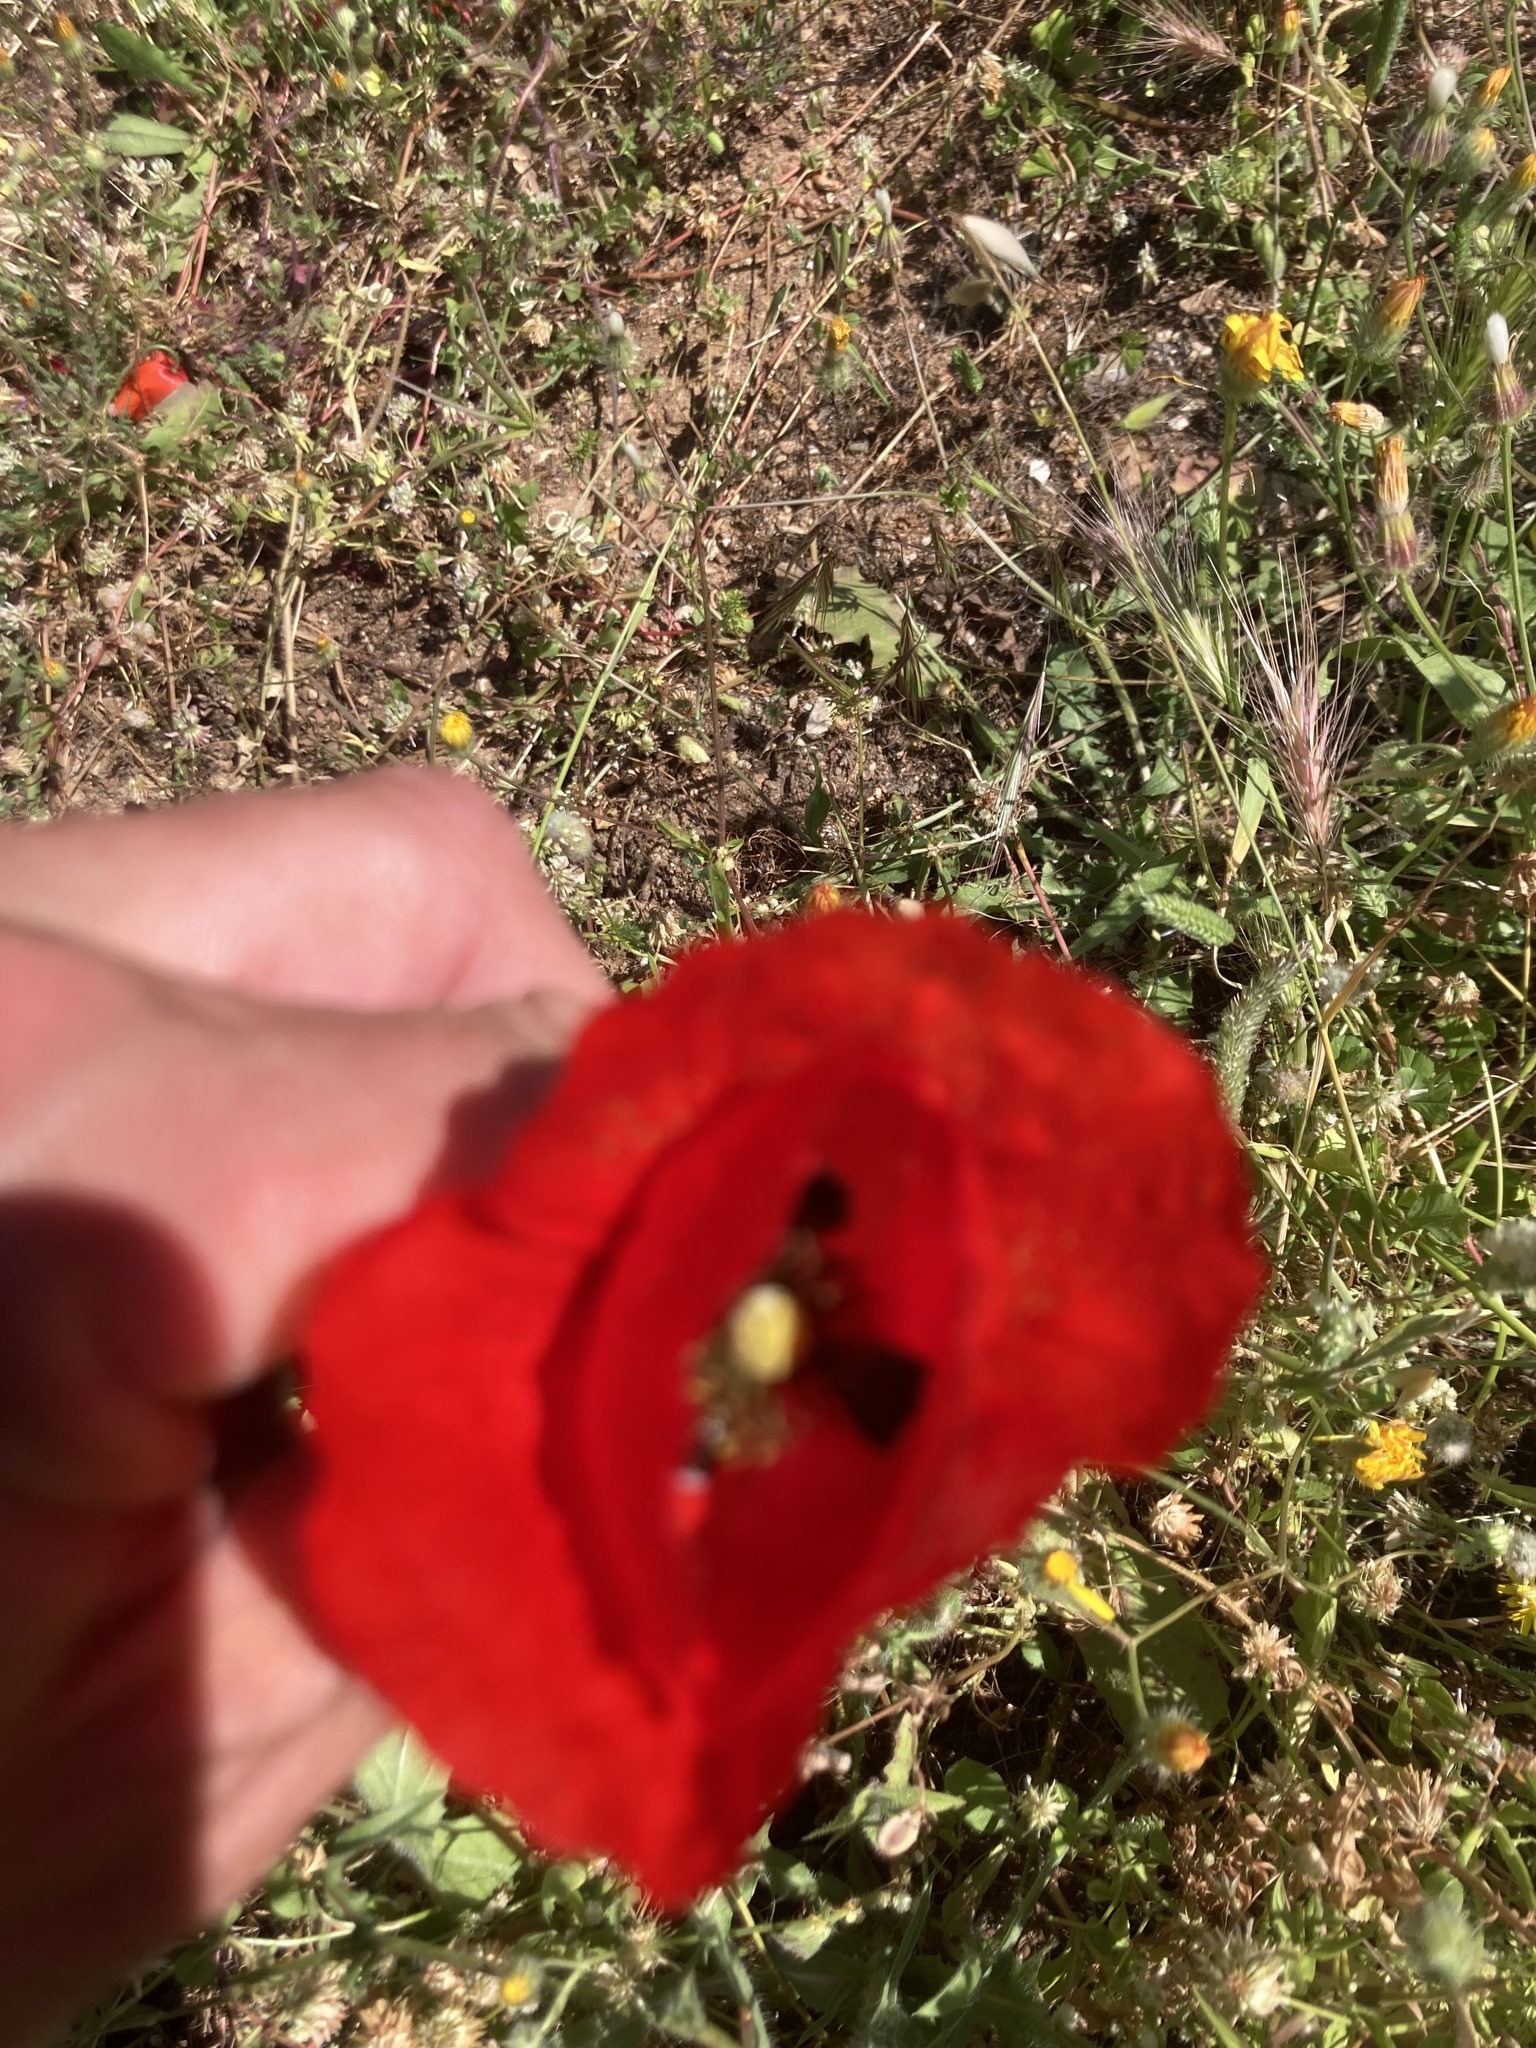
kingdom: Plantae
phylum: Tracheophyta
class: Magnoliopsida
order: Ranunculales
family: Papaveraceae
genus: Papaver
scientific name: Papaver rhoeas
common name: Corn poppy
